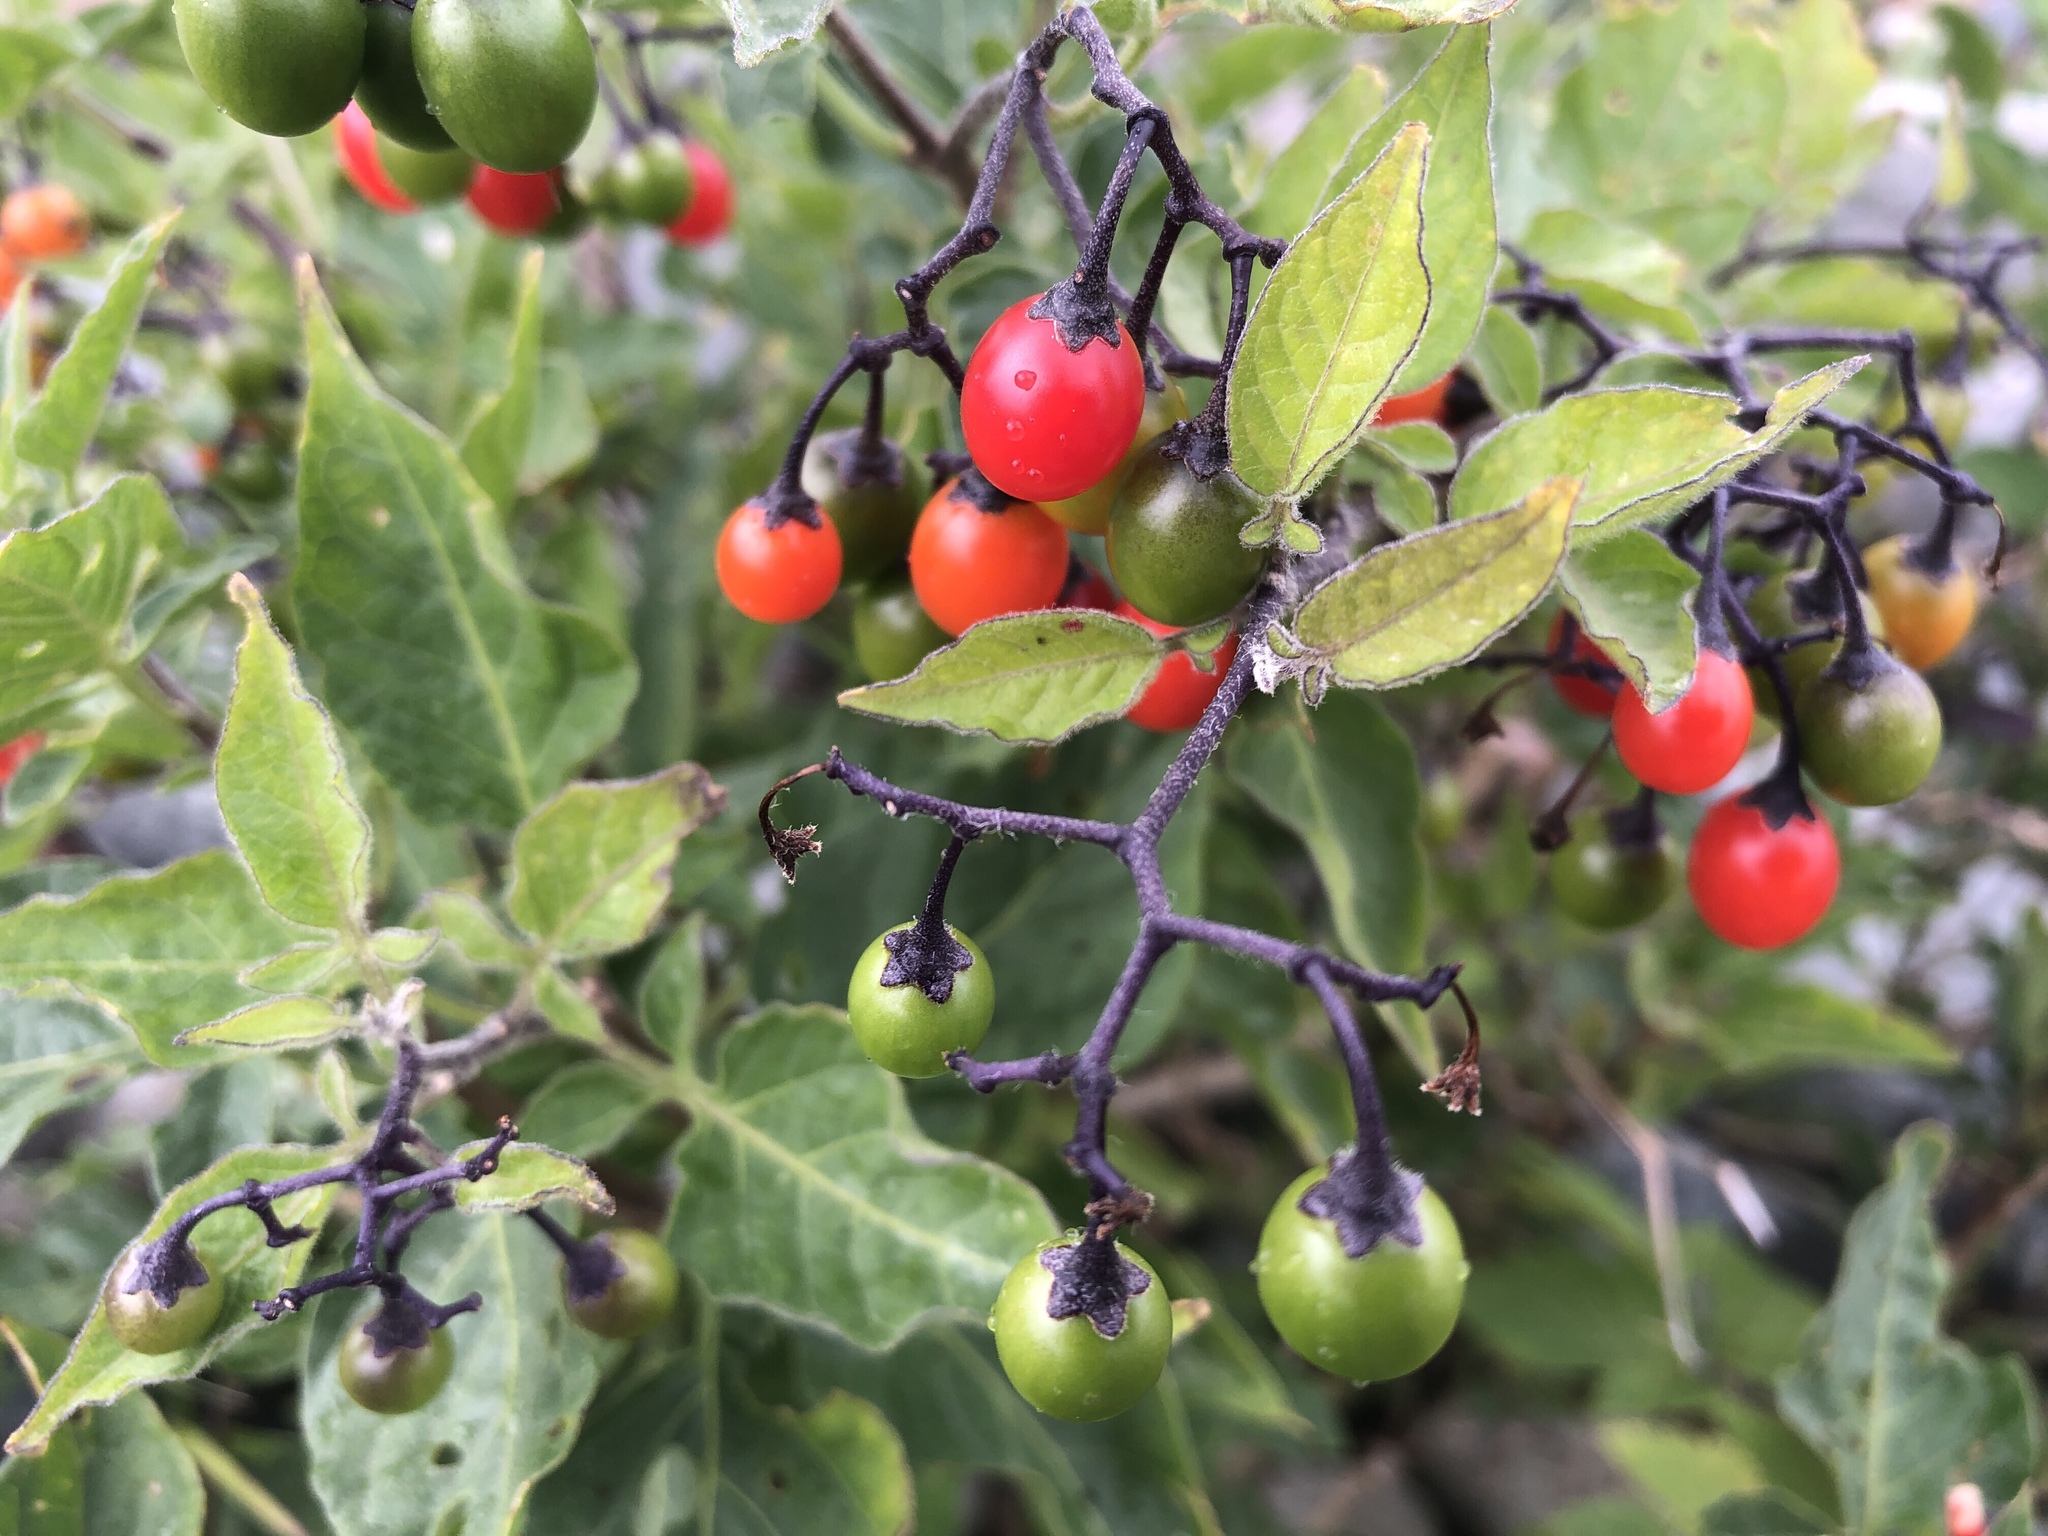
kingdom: Plantae
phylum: Tracheophyta
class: Magnoliopsida
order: Solanales
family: Solanaceae
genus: Solanum
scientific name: Solanum dulcamara
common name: Climbing nightshade
